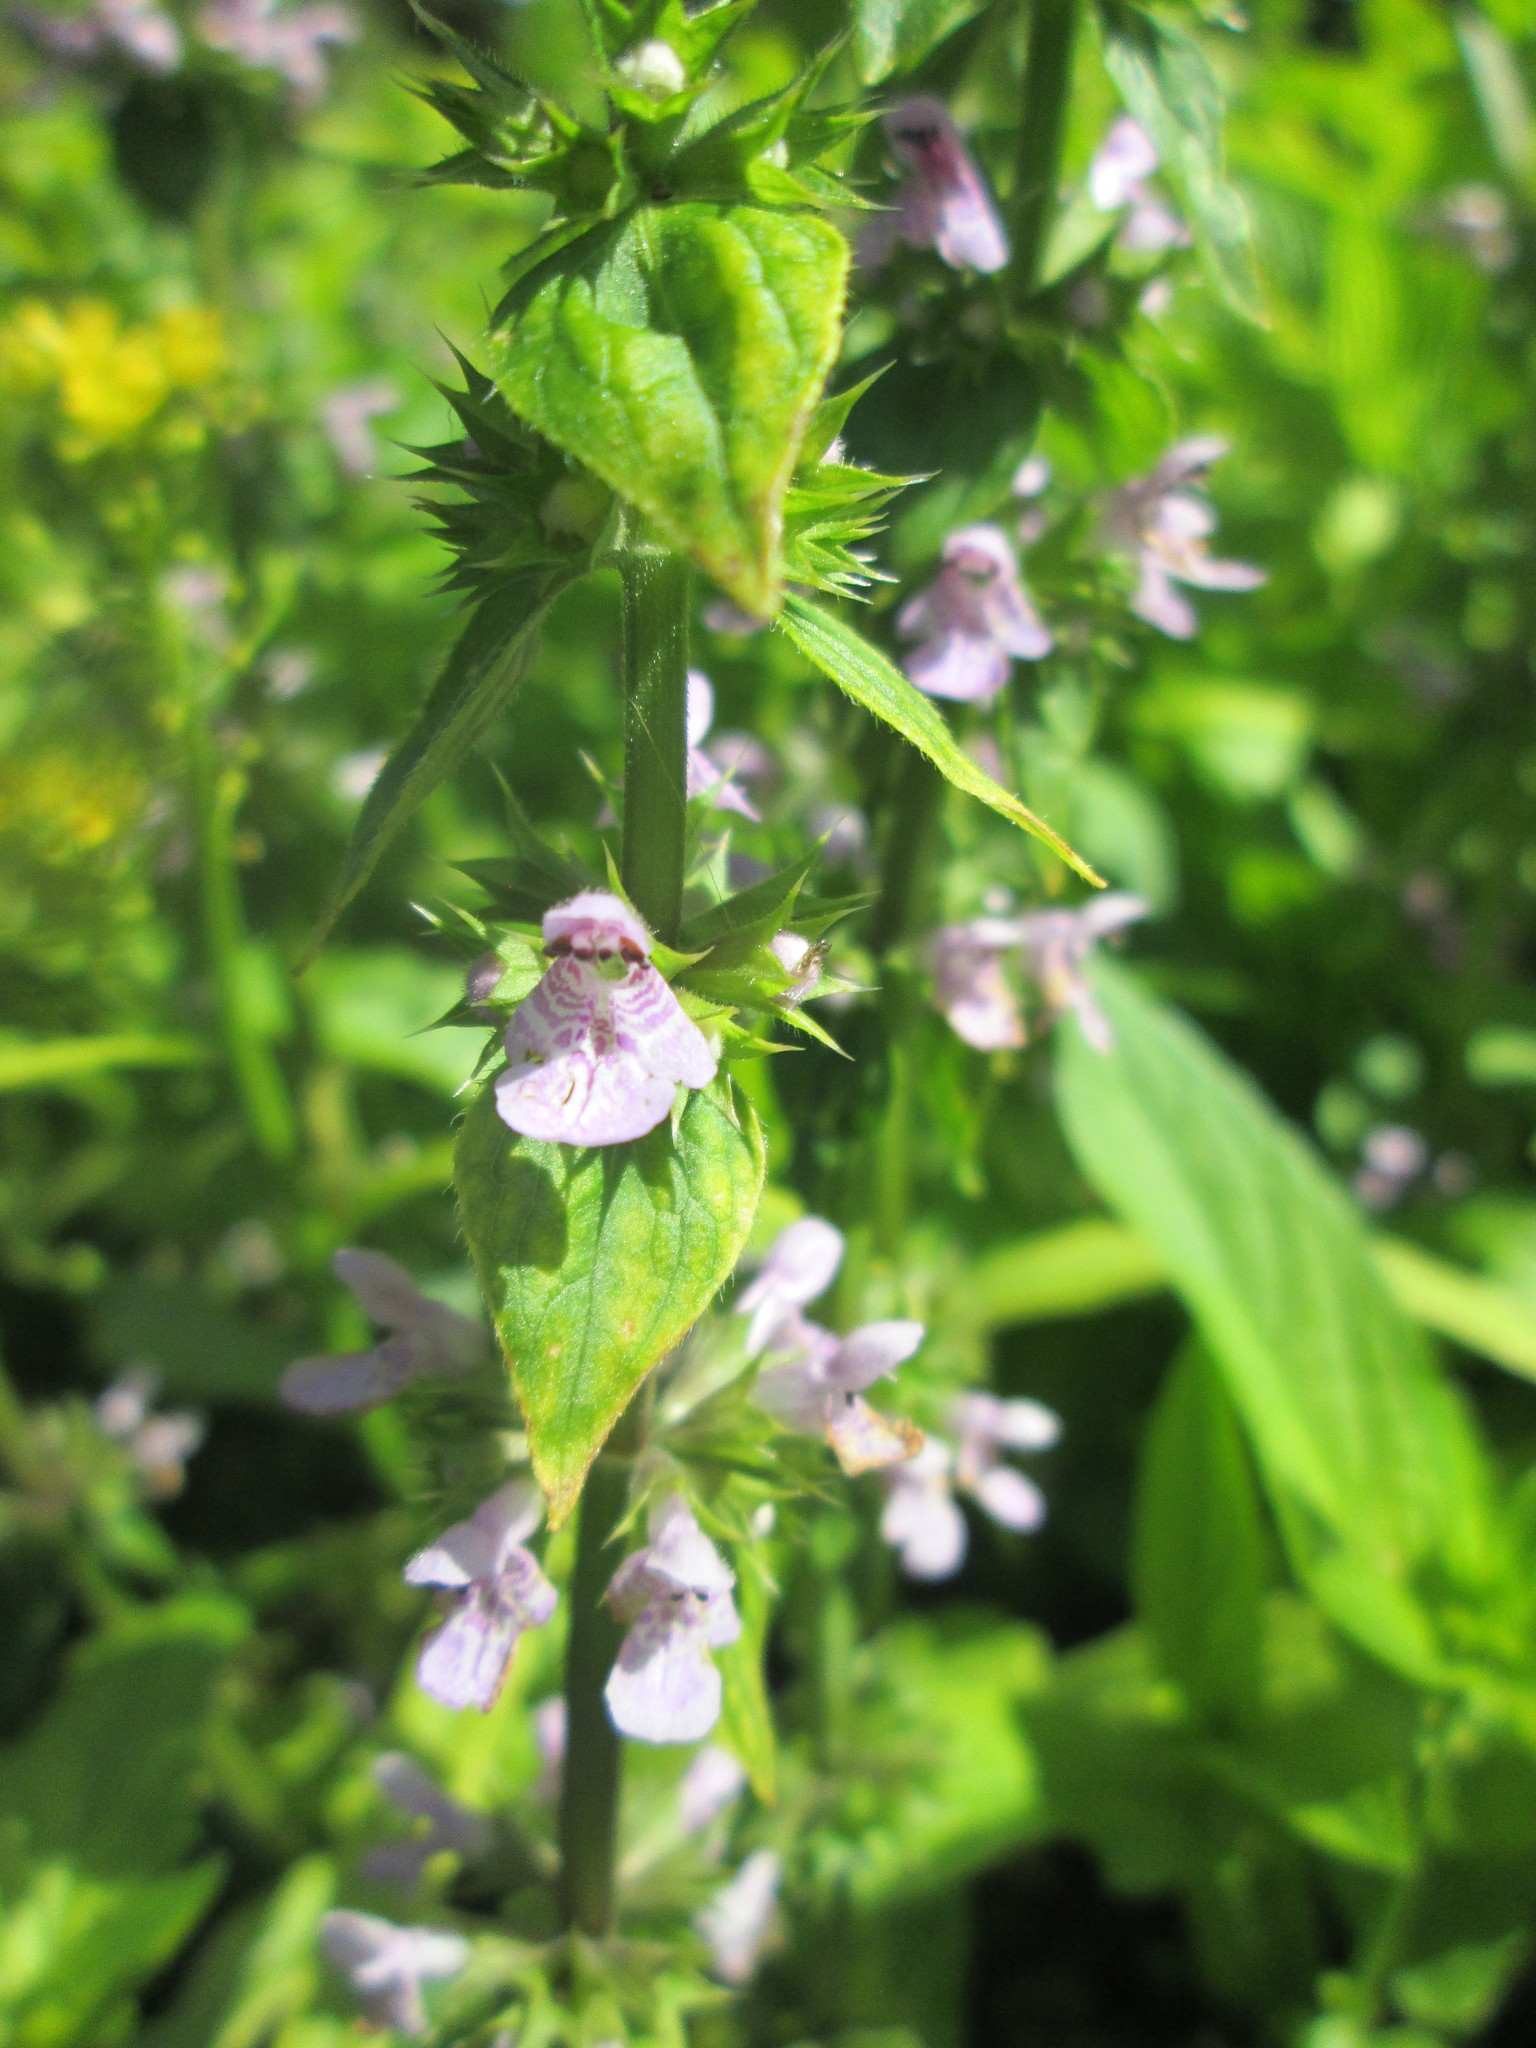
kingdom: Plantae
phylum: Tracheophyta
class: Magnoliopsida
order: Lamiales
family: Lamiaceae
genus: Stachys
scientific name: Stachys palustris
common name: Marsh woundwort
